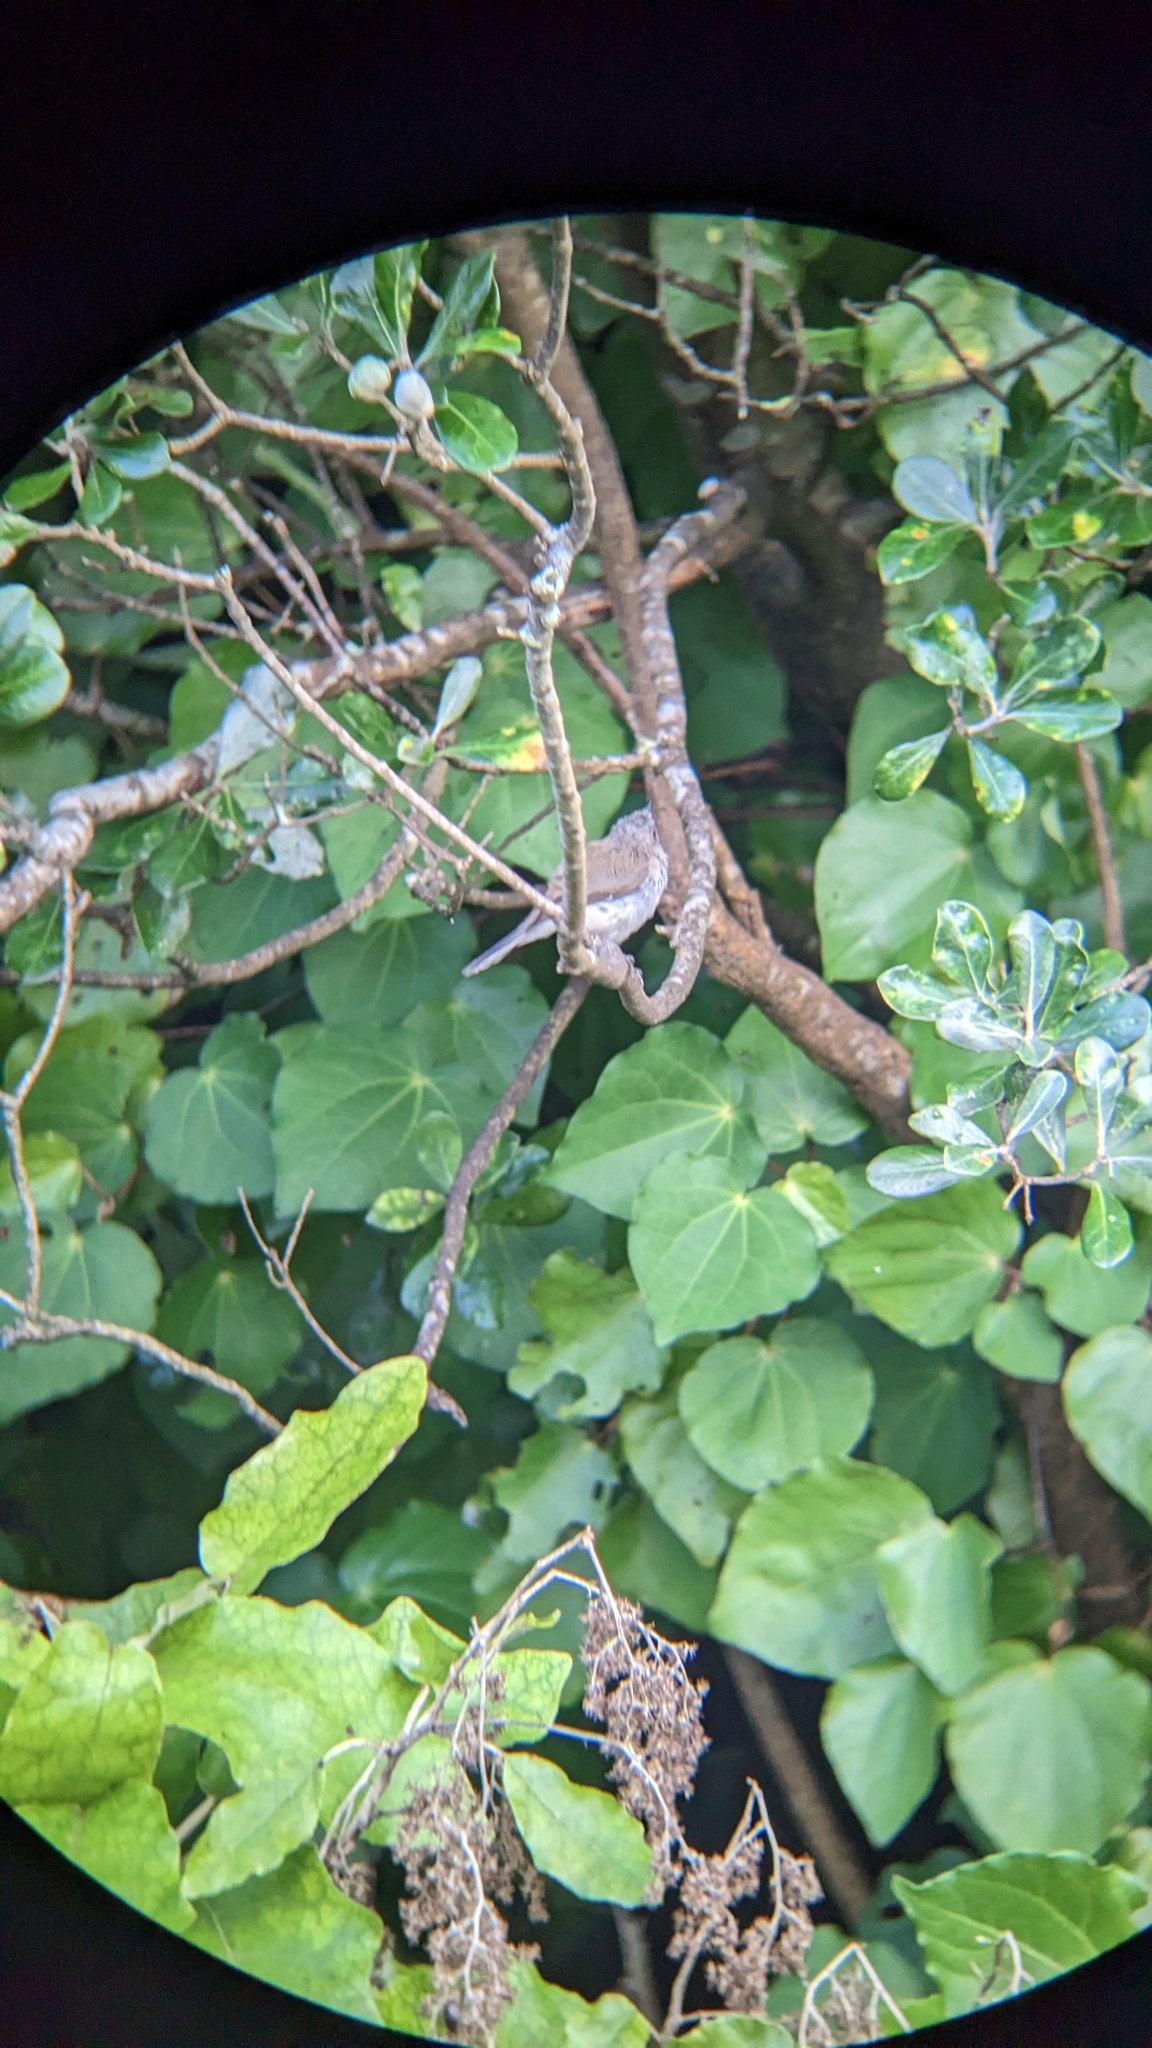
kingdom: Animalia
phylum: Chordata
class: Aves
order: Passeriformes
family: Acanthizidae
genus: Gerygone
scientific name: Gerygone igata
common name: Grey gerygone
